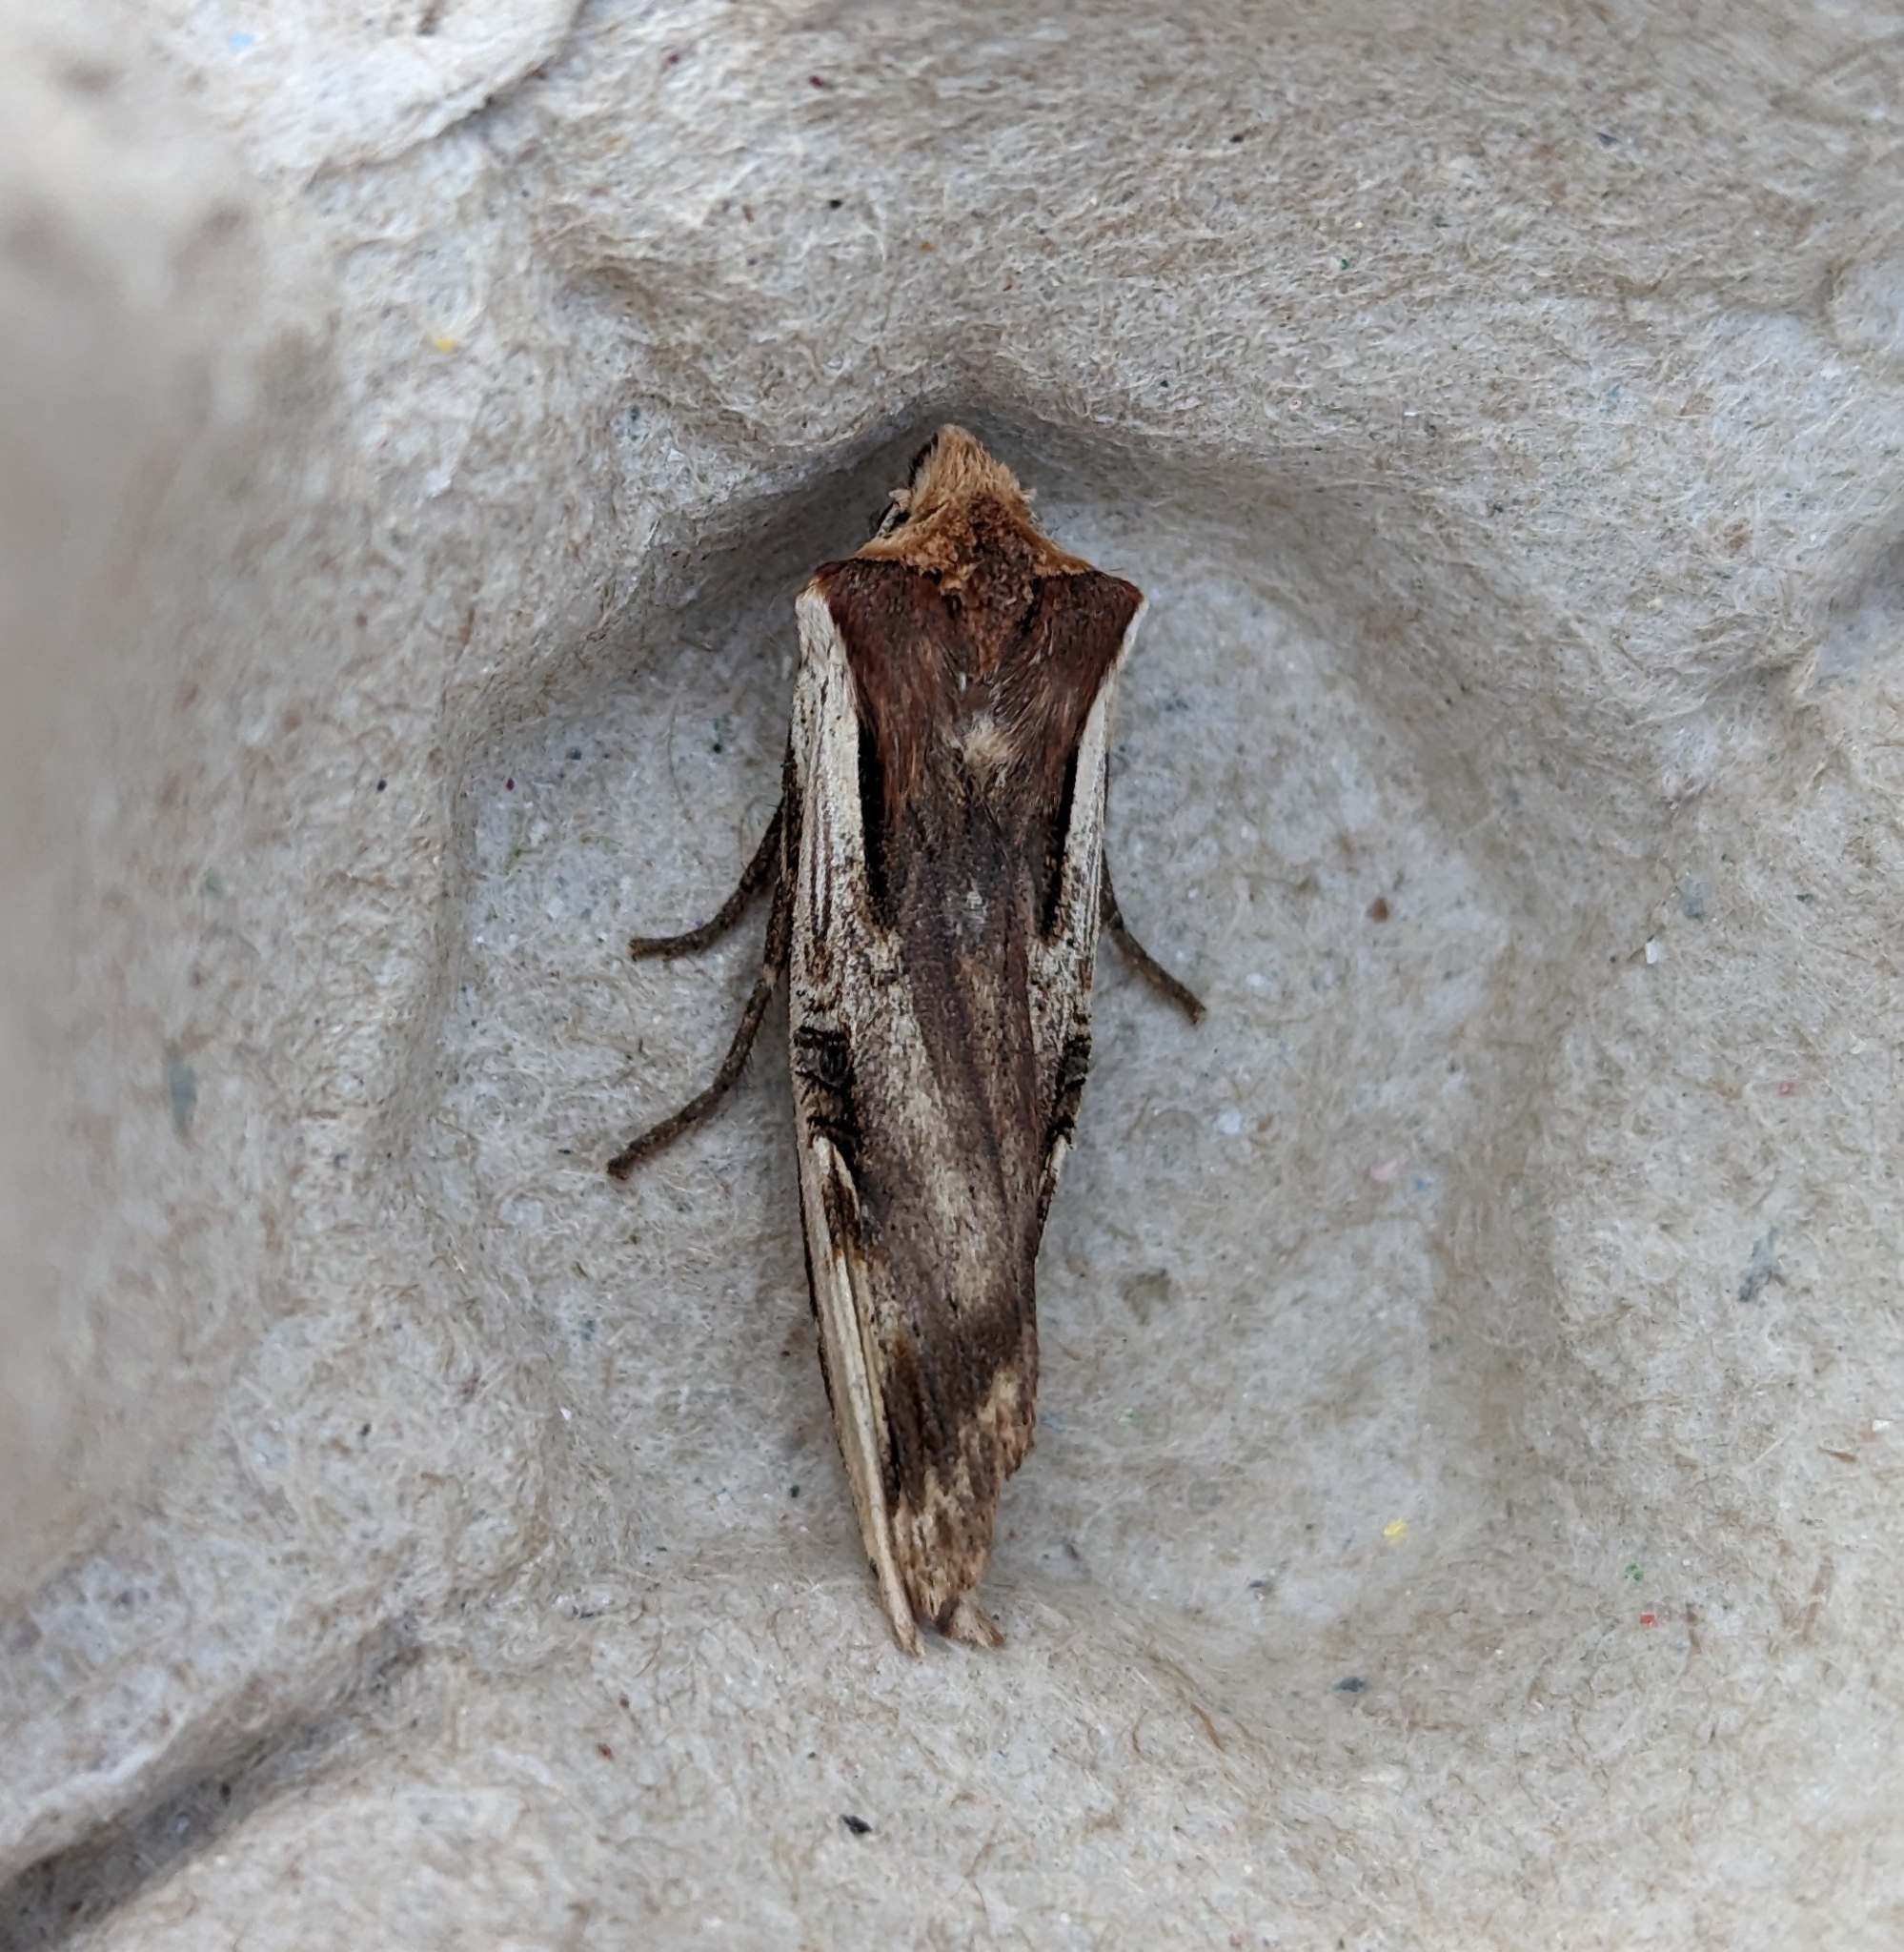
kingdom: Animalia
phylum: Arthropoda
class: Insecta
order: Lepidoptera
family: Noctuidae
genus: Xylena
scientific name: Xylena curvimacula
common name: Dot-and-dash swordgrass moth
